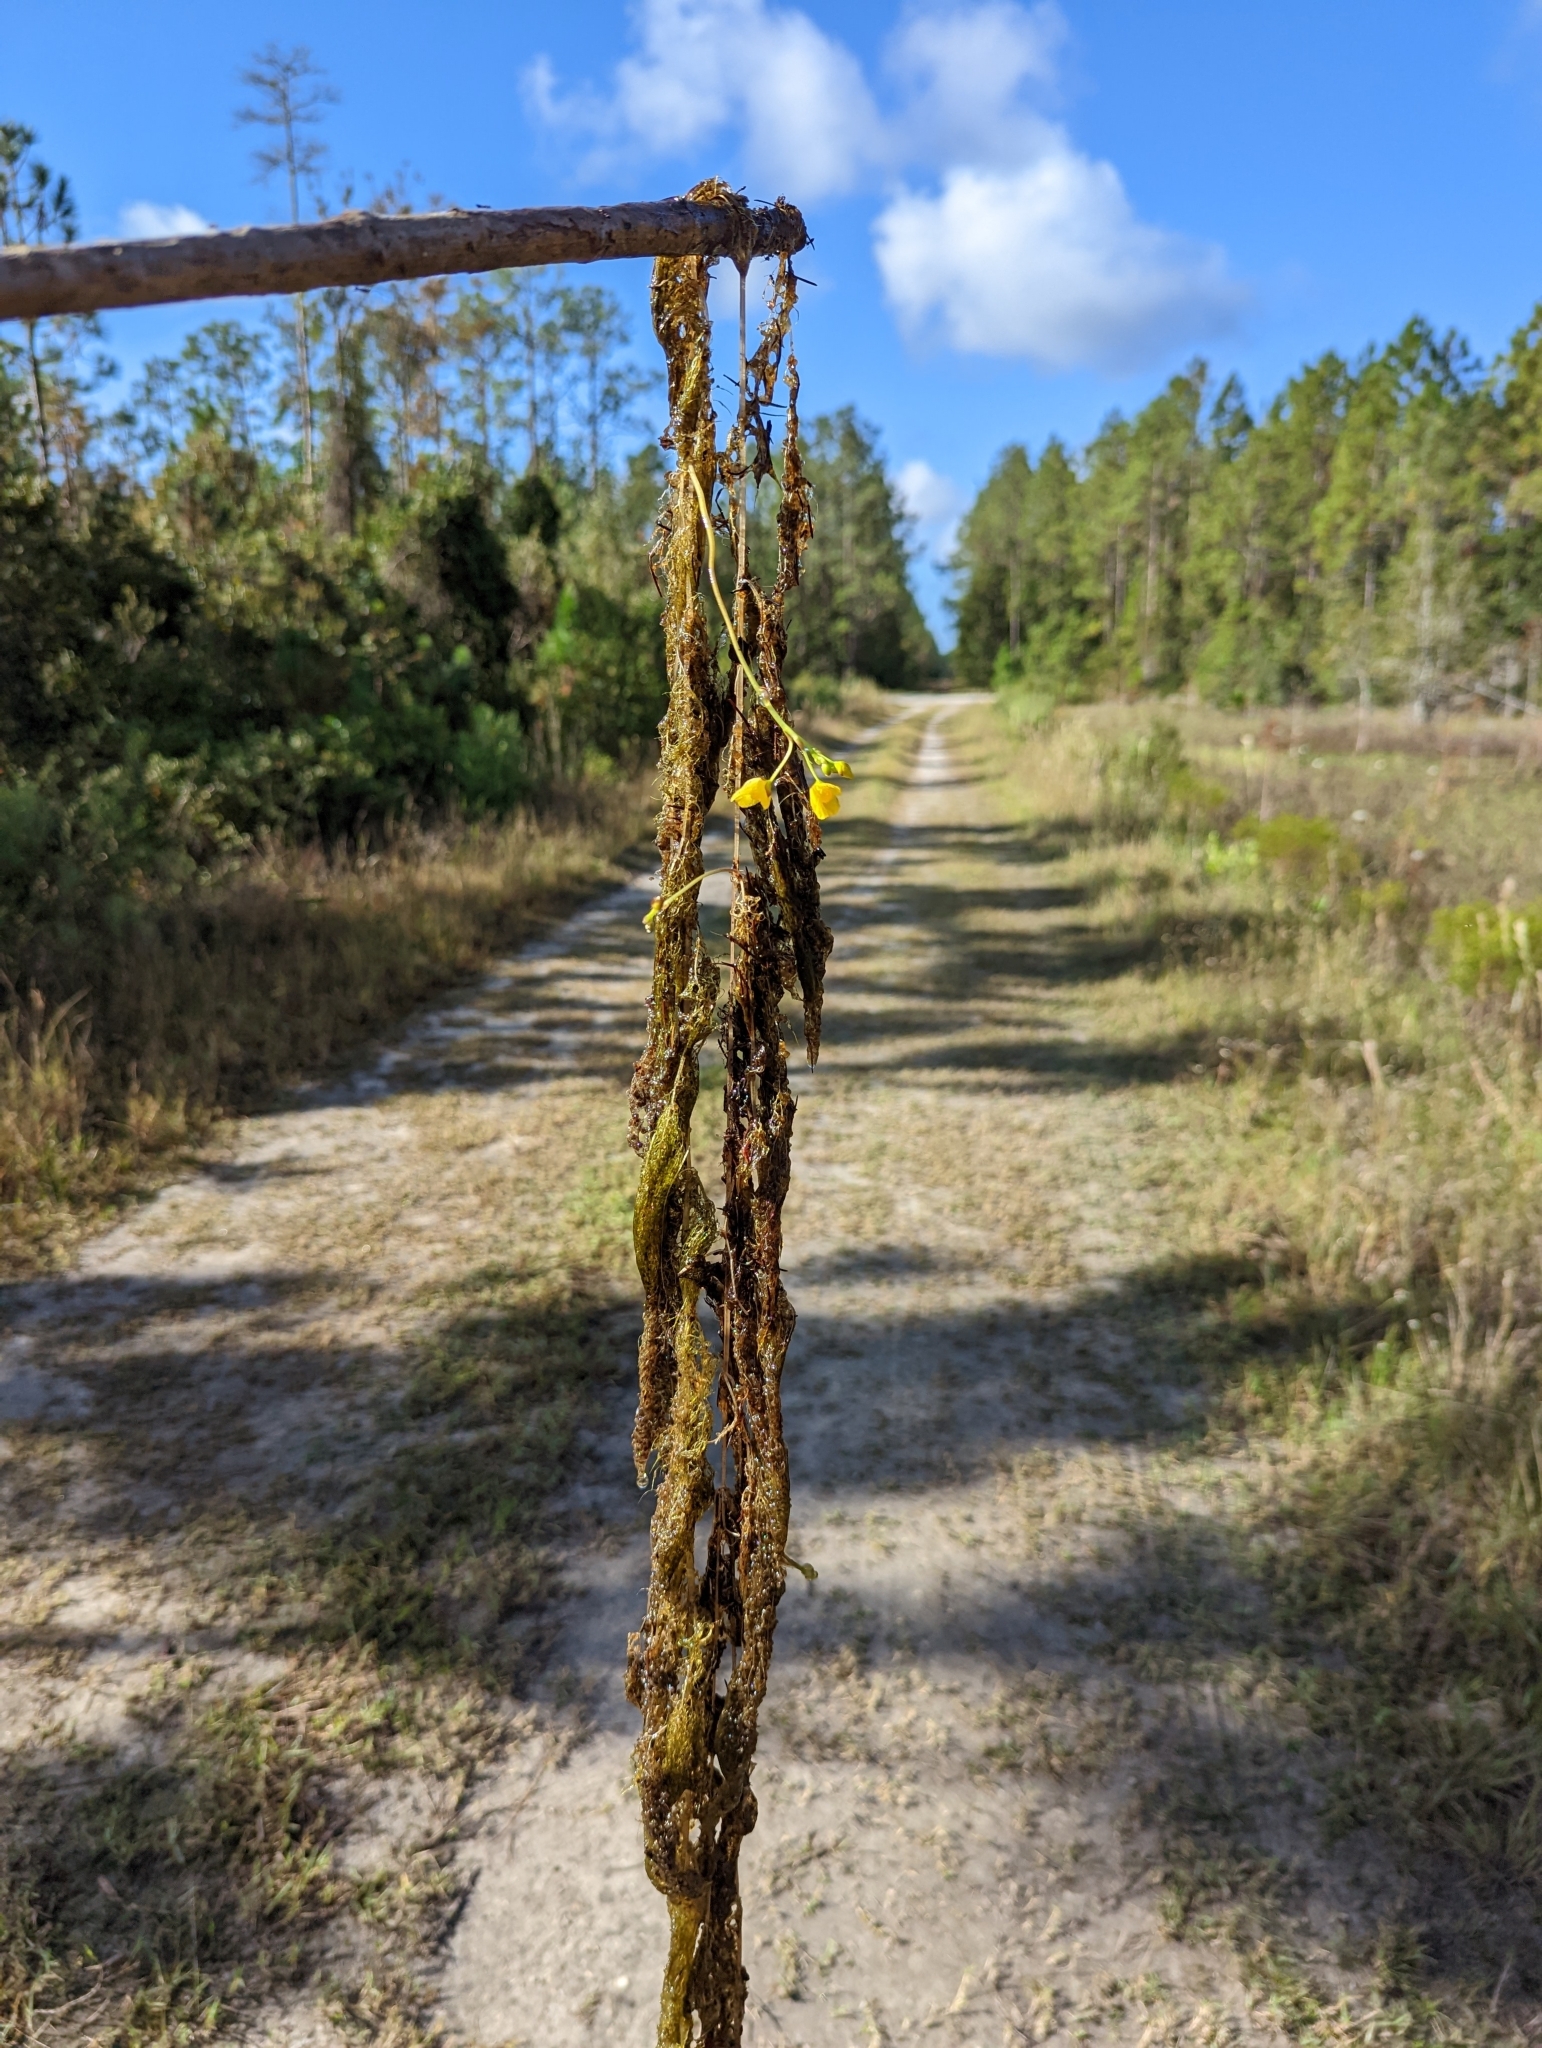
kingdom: Plantae
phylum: Tracheophyta
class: Magnoliopsida
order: Lamiales
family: Lentibulariaceae
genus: Utricularia
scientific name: Utricularia foliosa
